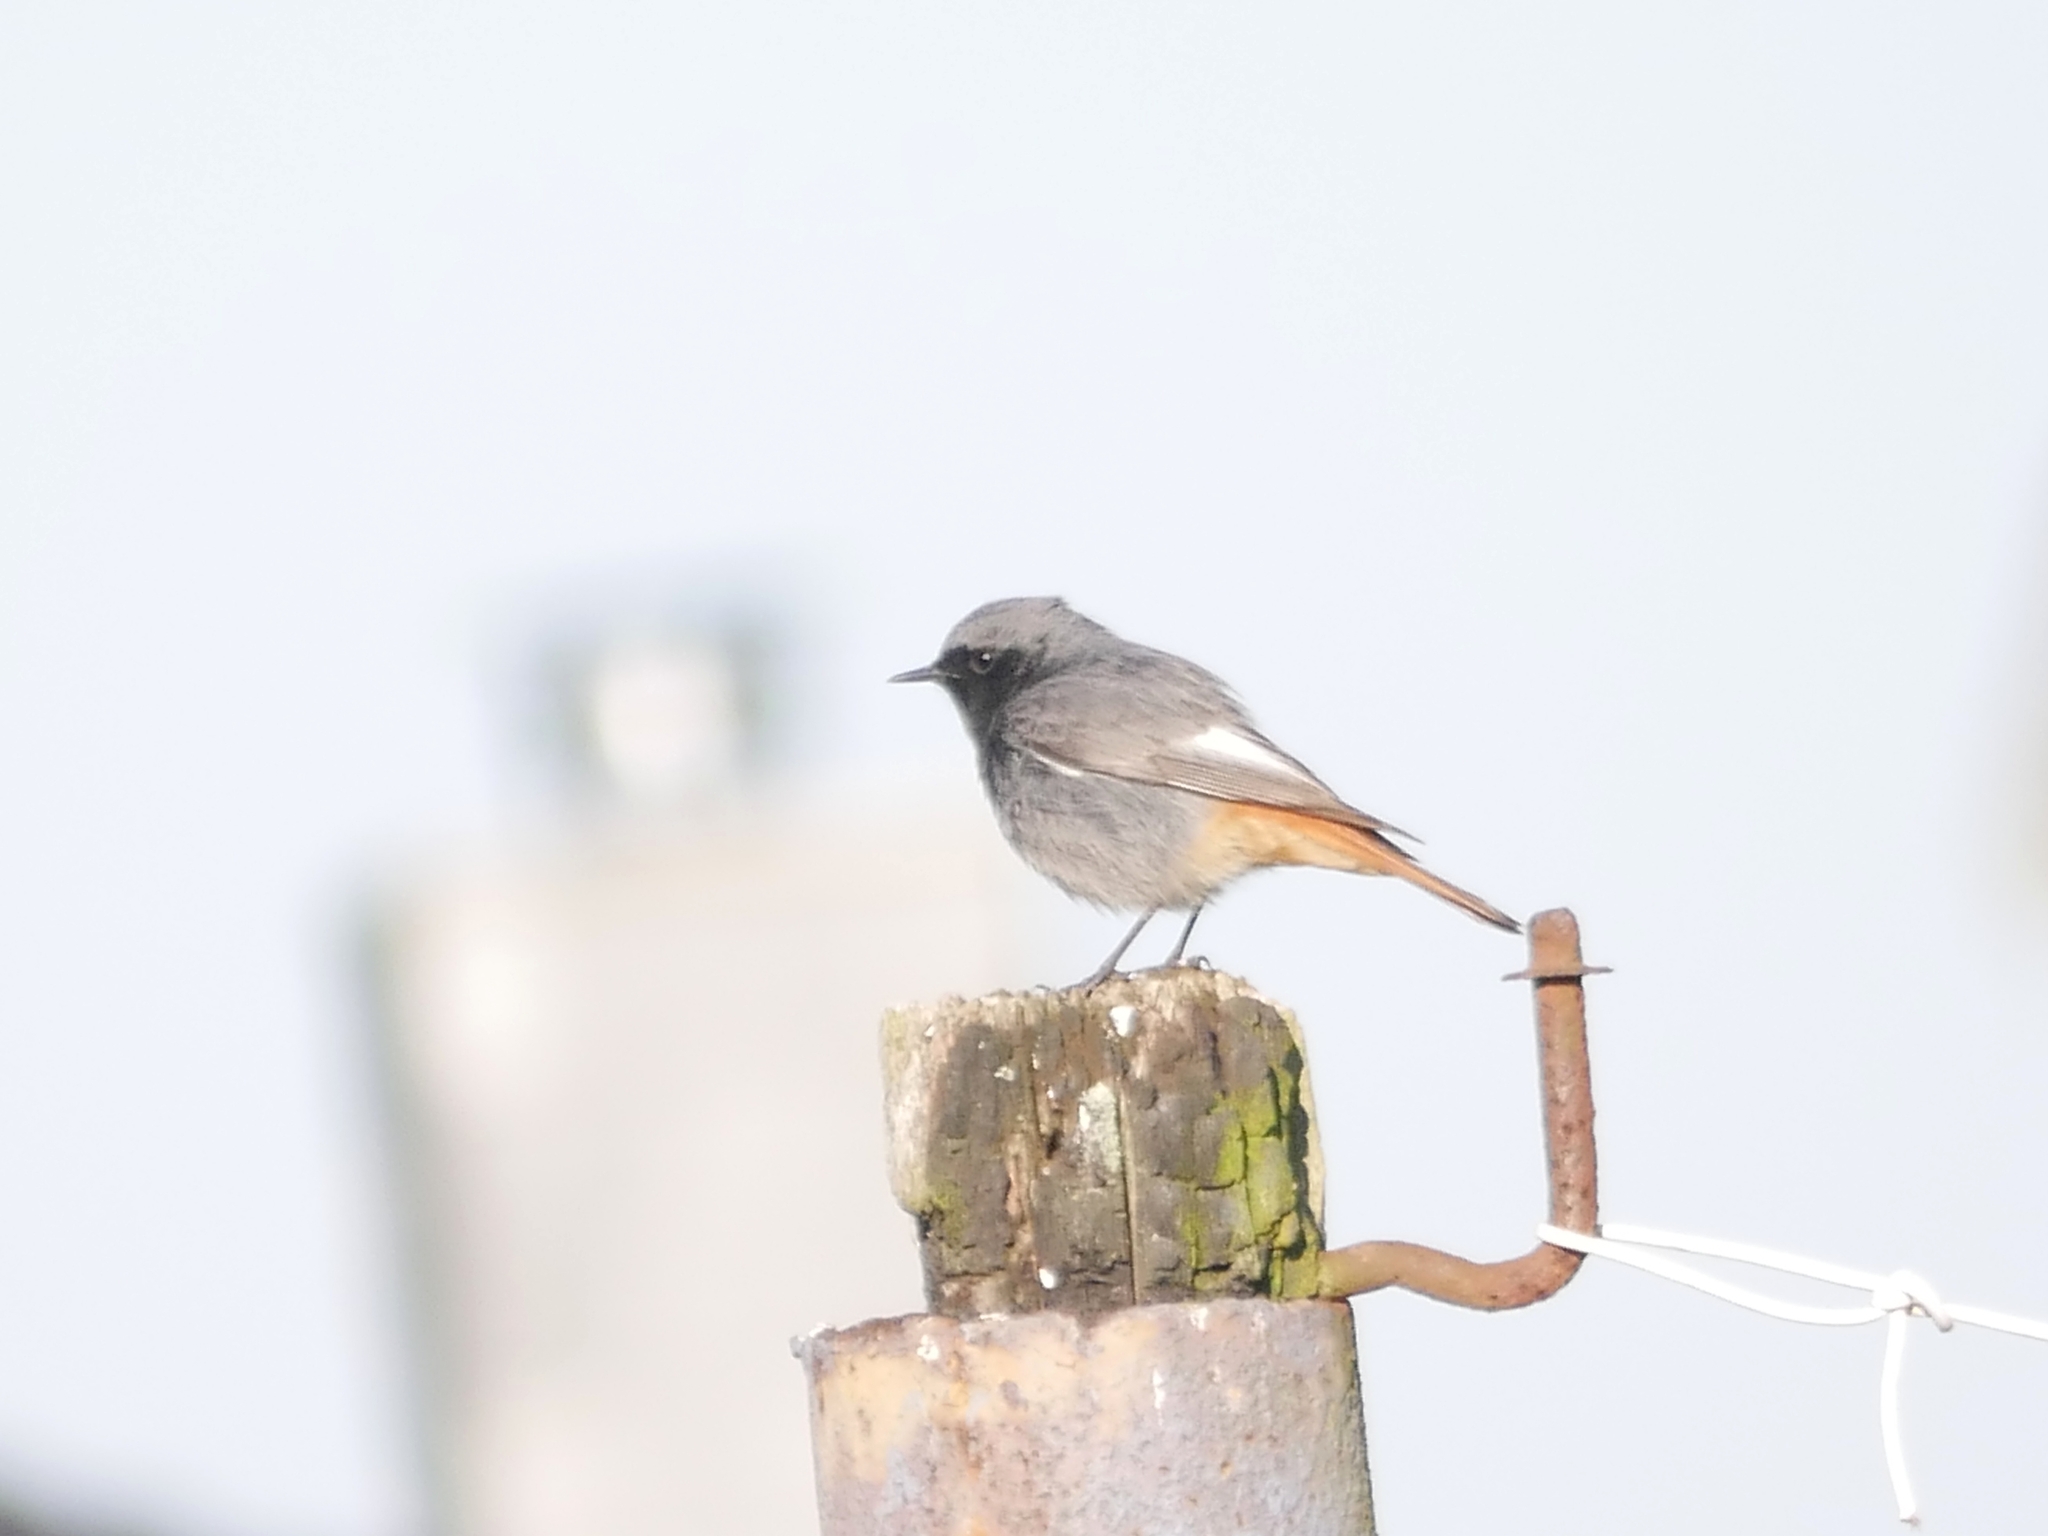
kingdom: Animalia
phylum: Chordata
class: Aves
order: Passeriformes
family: Muscicapidae
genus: Phoenicurus
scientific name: Phoenicurus ochruros
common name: Black redstart
